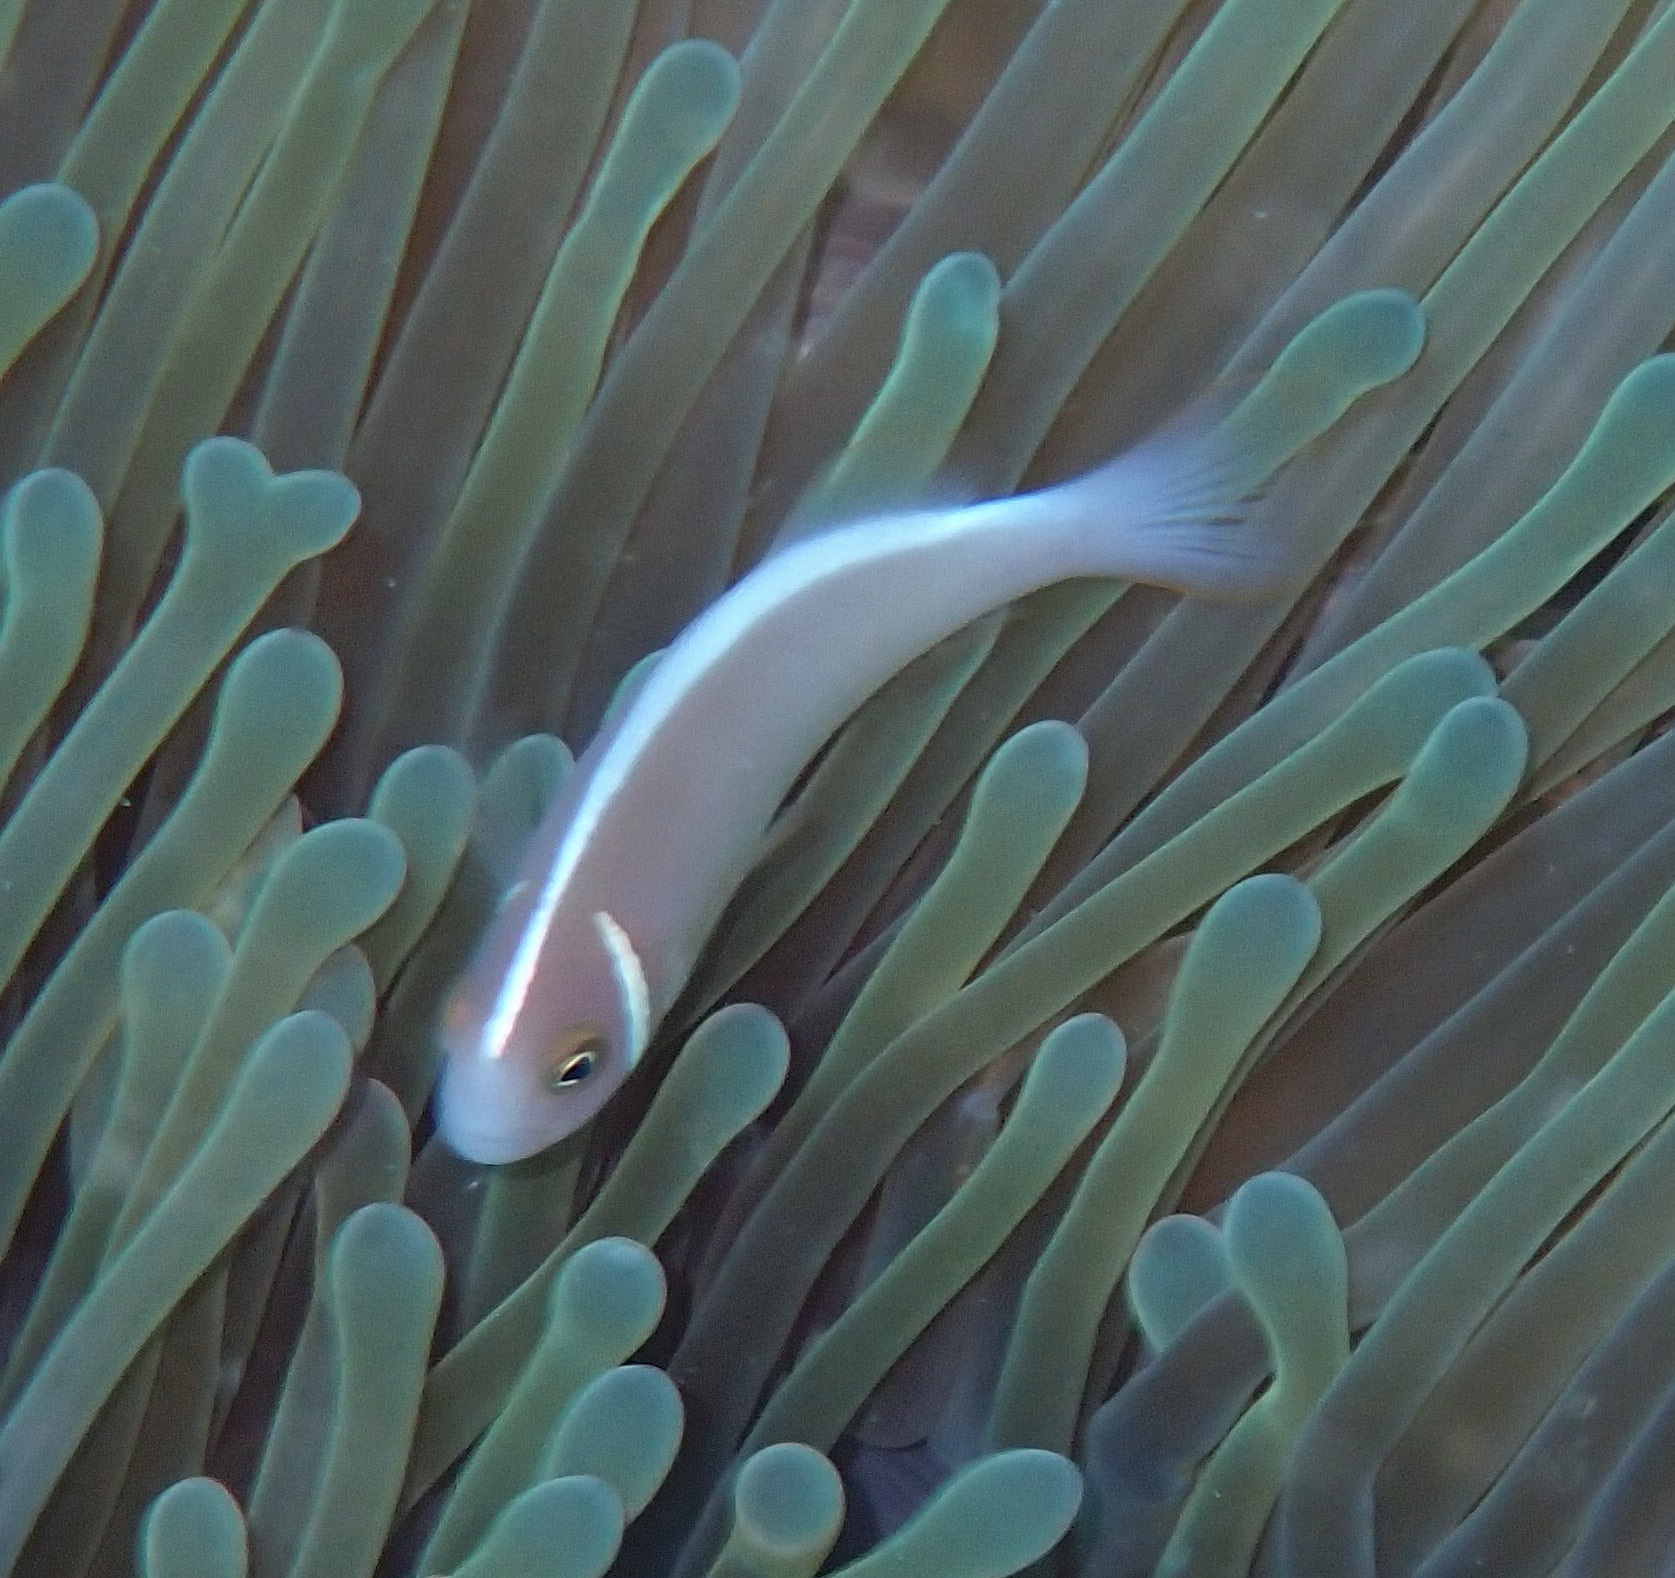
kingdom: Animalia
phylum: Chordata
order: Perciformes
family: Pomacentridae
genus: Amphiprion
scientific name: Amphiprion perideraion
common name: Pink anemonefish
